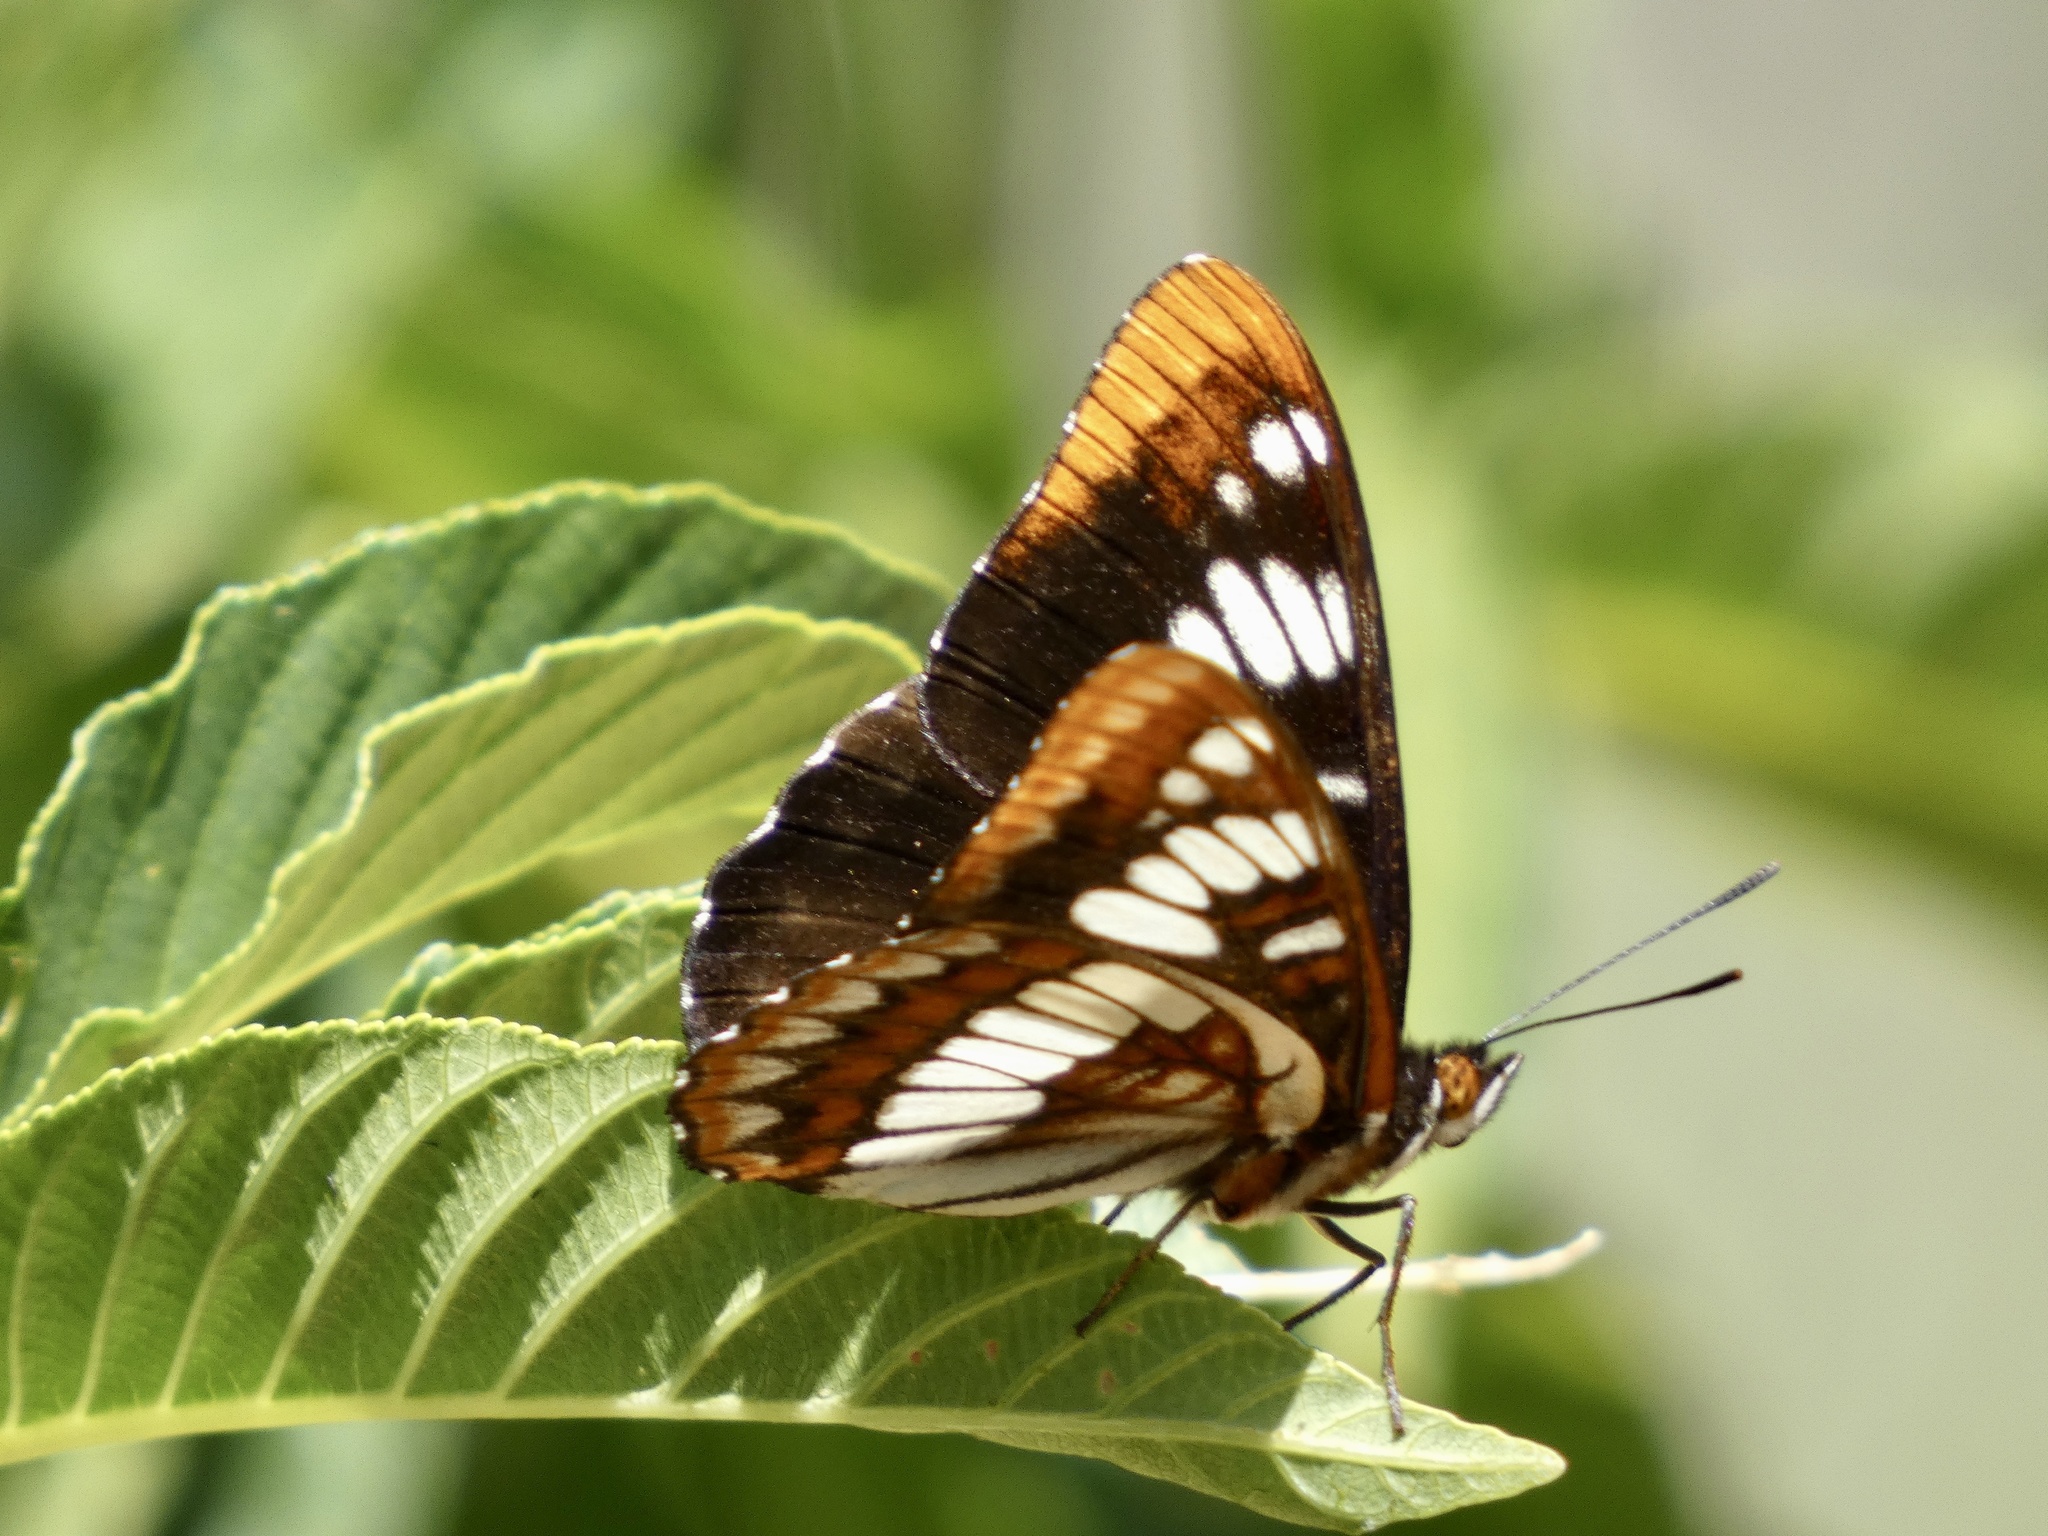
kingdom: Animalia
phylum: Arthropoda
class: Insecta
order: Lepidoptera
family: Nymphalidae
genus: Limenitis
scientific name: Limenitis lorquini
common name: Lorquin's admiral
